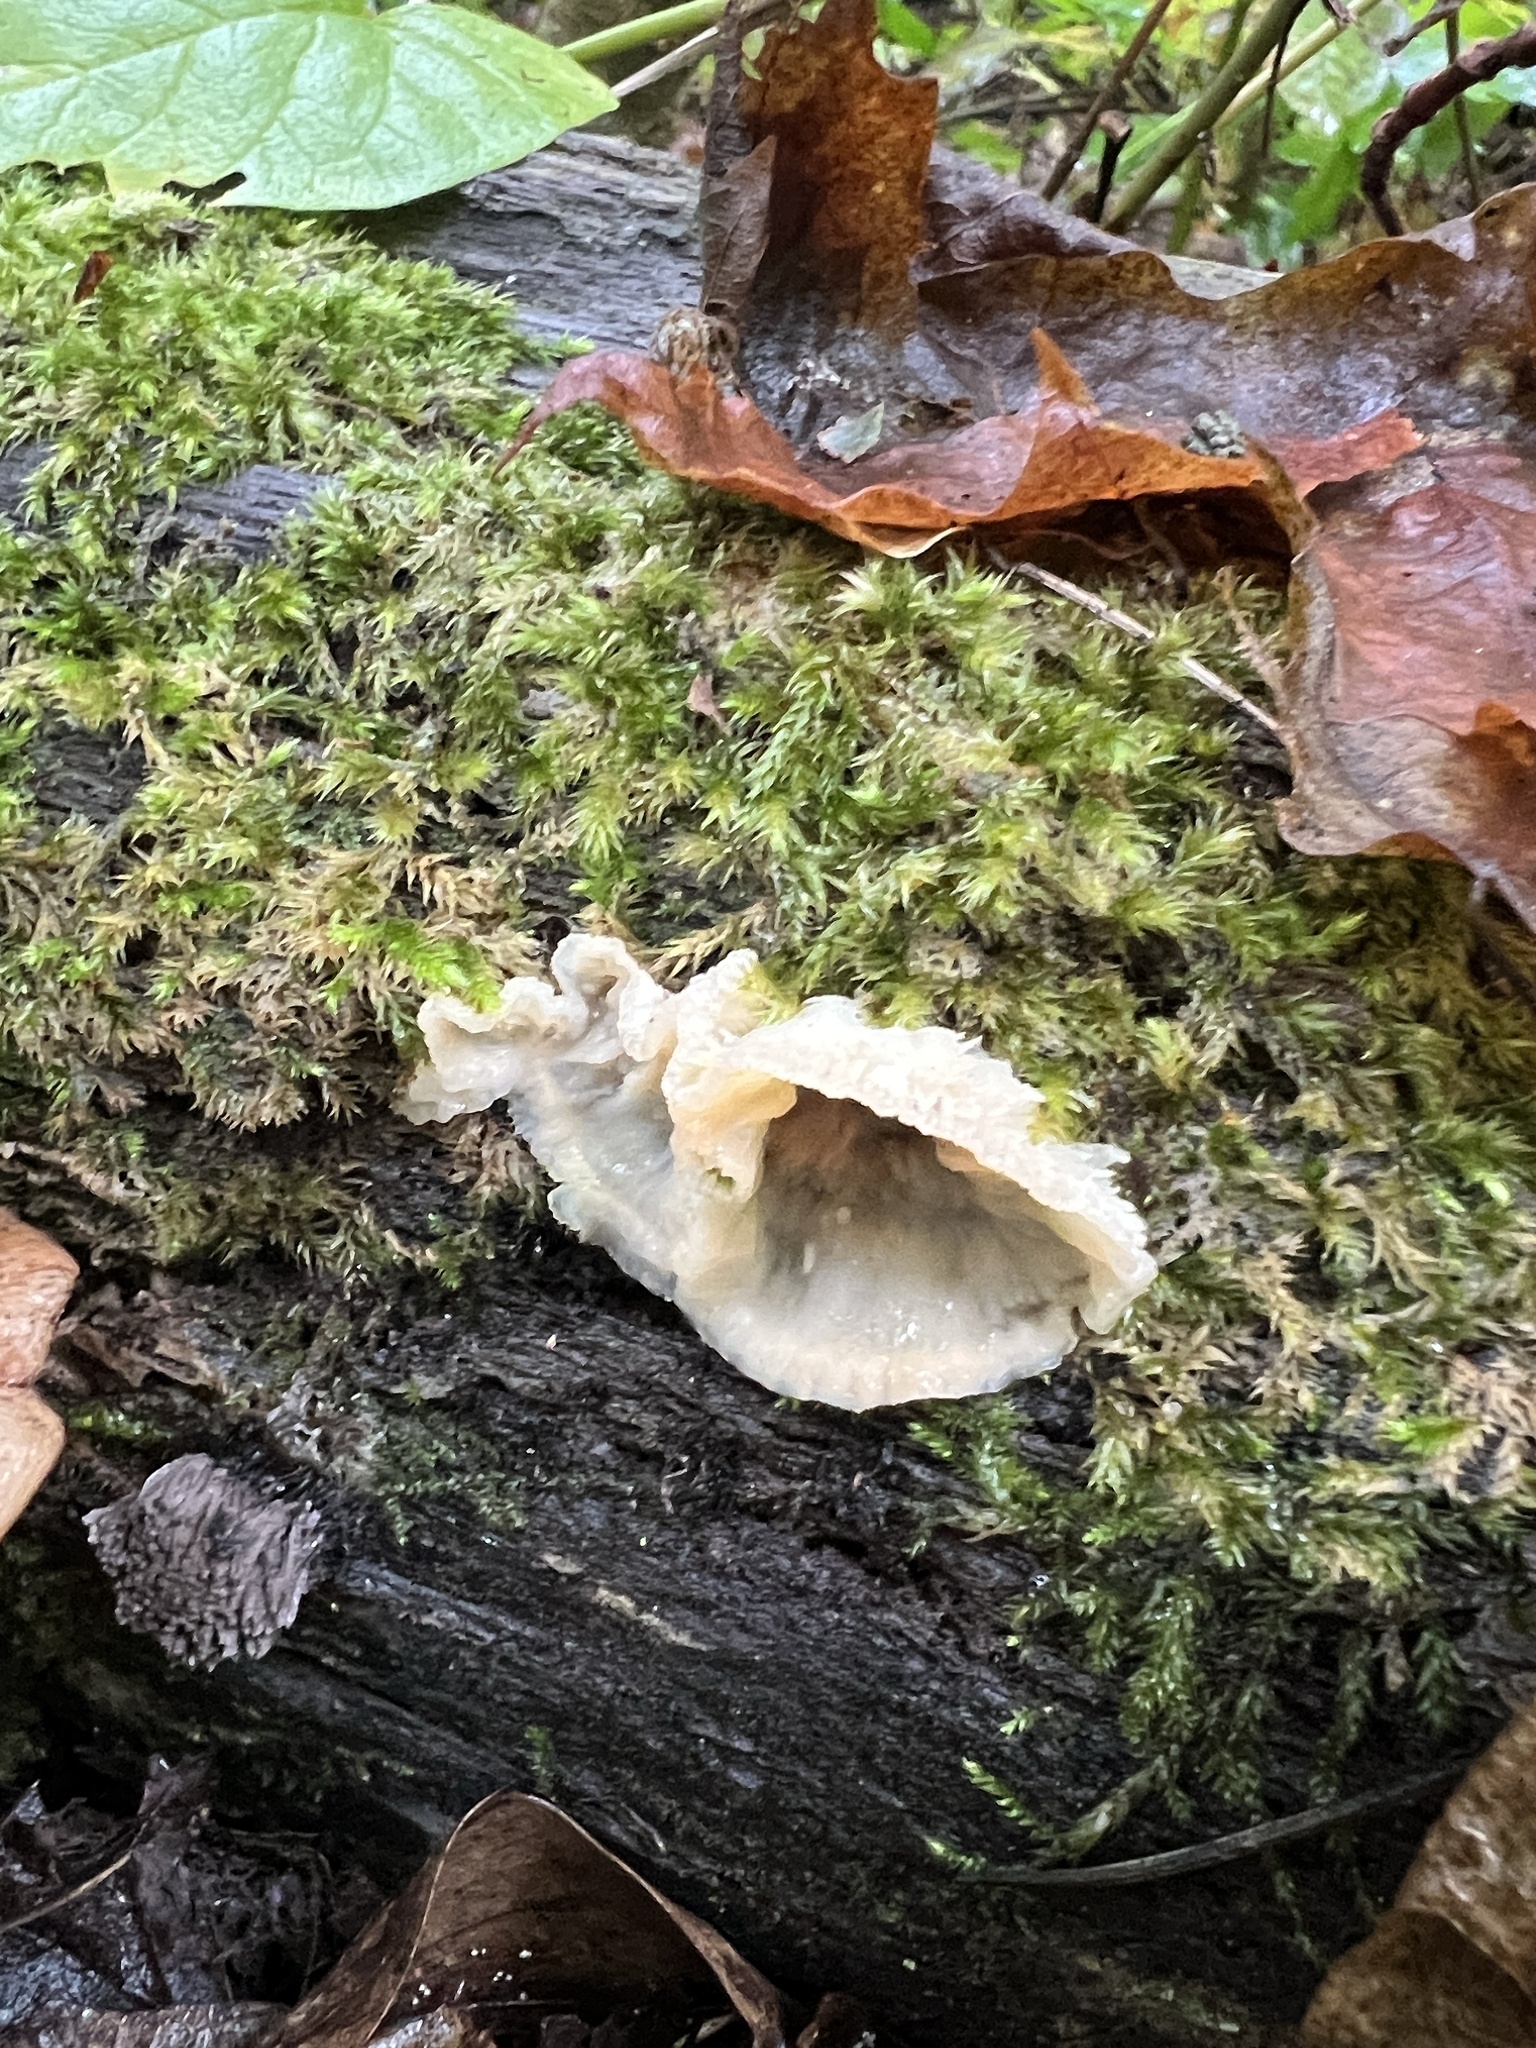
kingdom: Fungi
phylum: Basidiomycota
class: Agaricomycetes
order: Polyporales
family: Meruliaceae
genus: Phlebia
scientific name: Phlebia tremellosa
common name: Jelly rot
